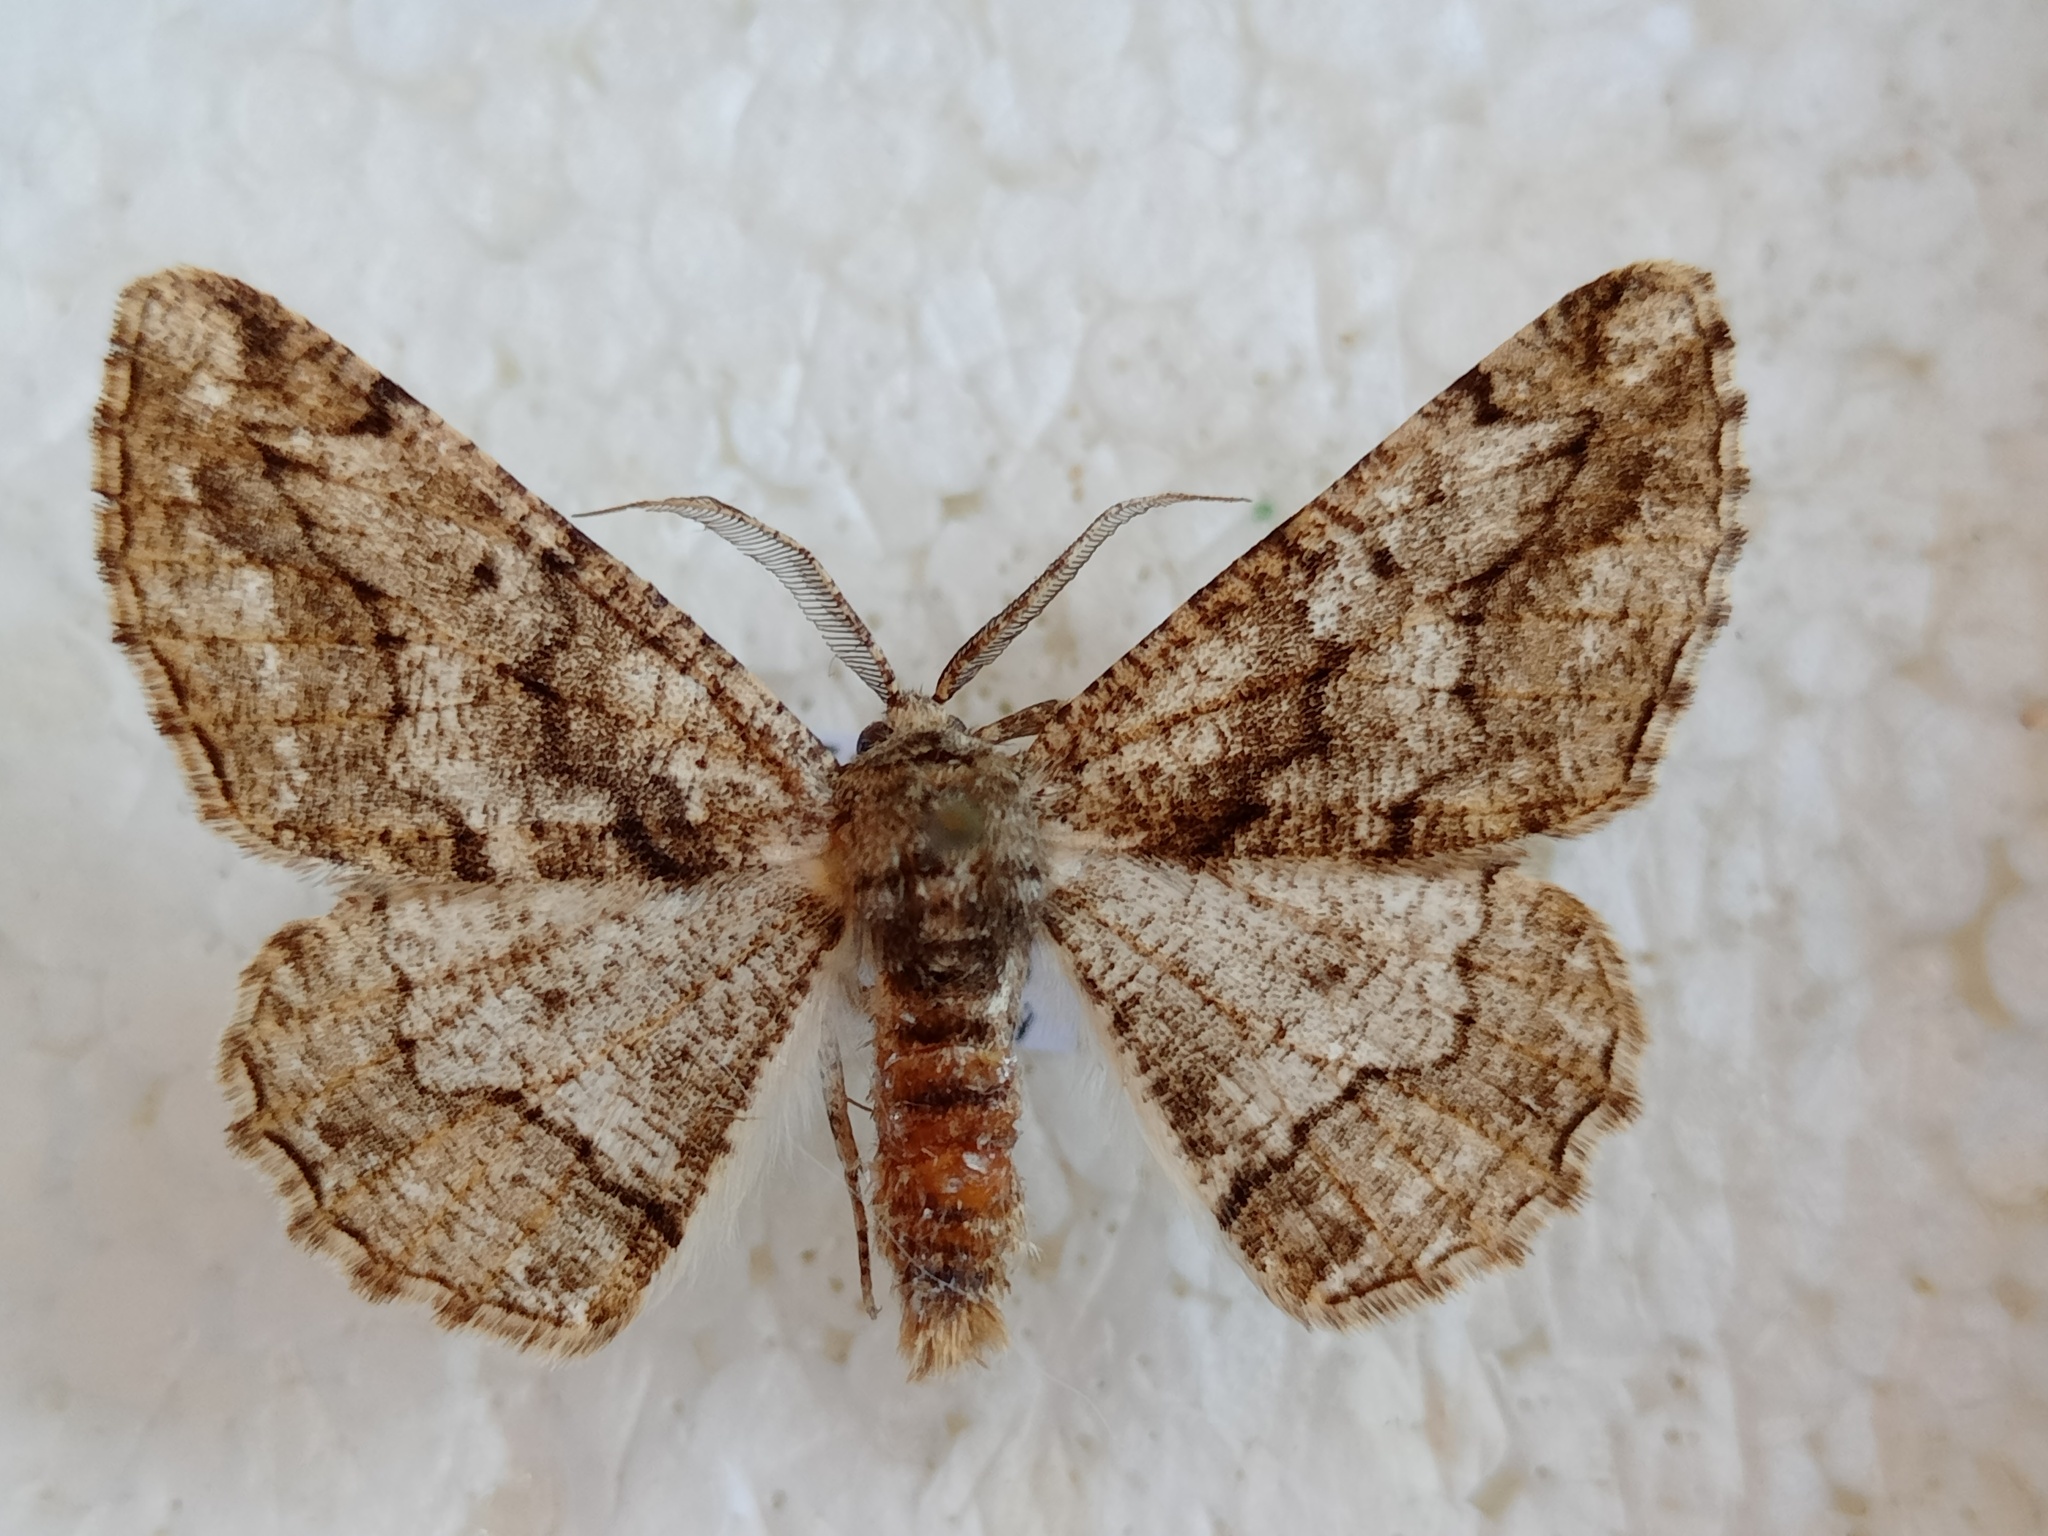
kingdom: Animalia
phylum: Arthropoda
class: Insecta
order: Lepidoptera
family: Geometridae
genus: Synopsia
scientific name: Synopsia sociaria
